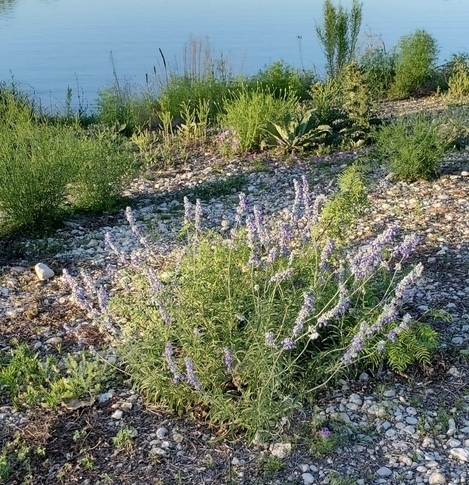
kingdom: Plantae
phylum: Tracheophyta
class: Magnoliopsida
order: Lamiales
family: Lamiaceae
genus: Salvia
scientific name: Salvia farinacea
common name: Mealy sage
